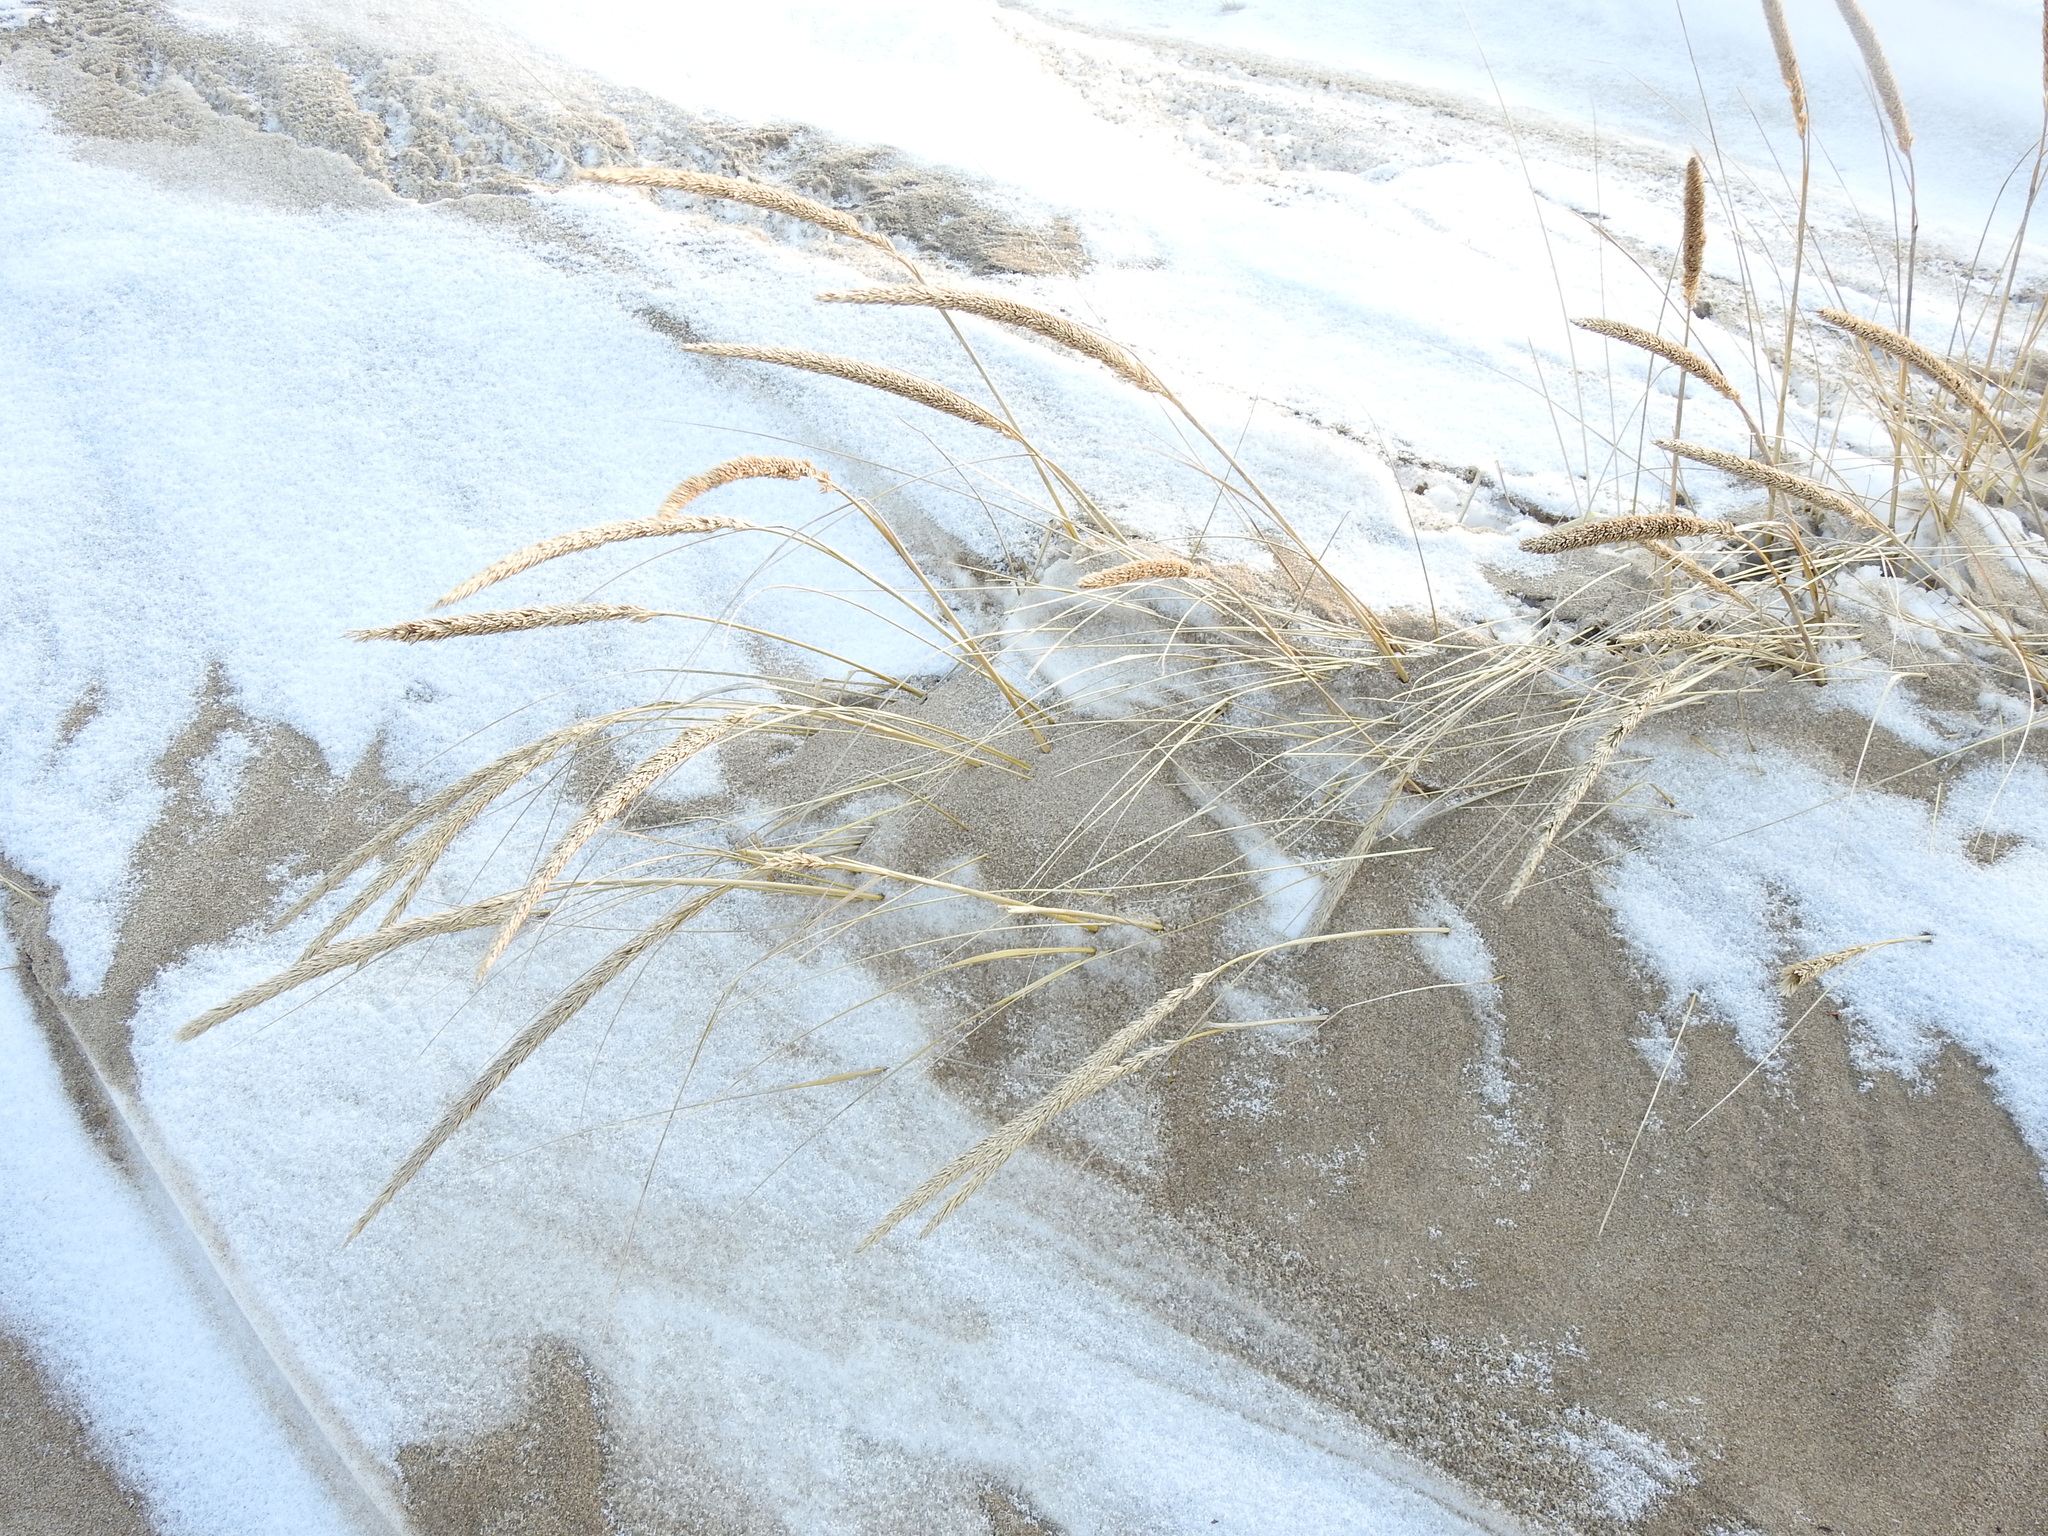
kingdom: Plantae
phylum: Tracheophyta
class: Liliopsida
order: Poales
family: Poaceae
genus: Calamagrostis
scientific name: Calamagrostis breviligulata
